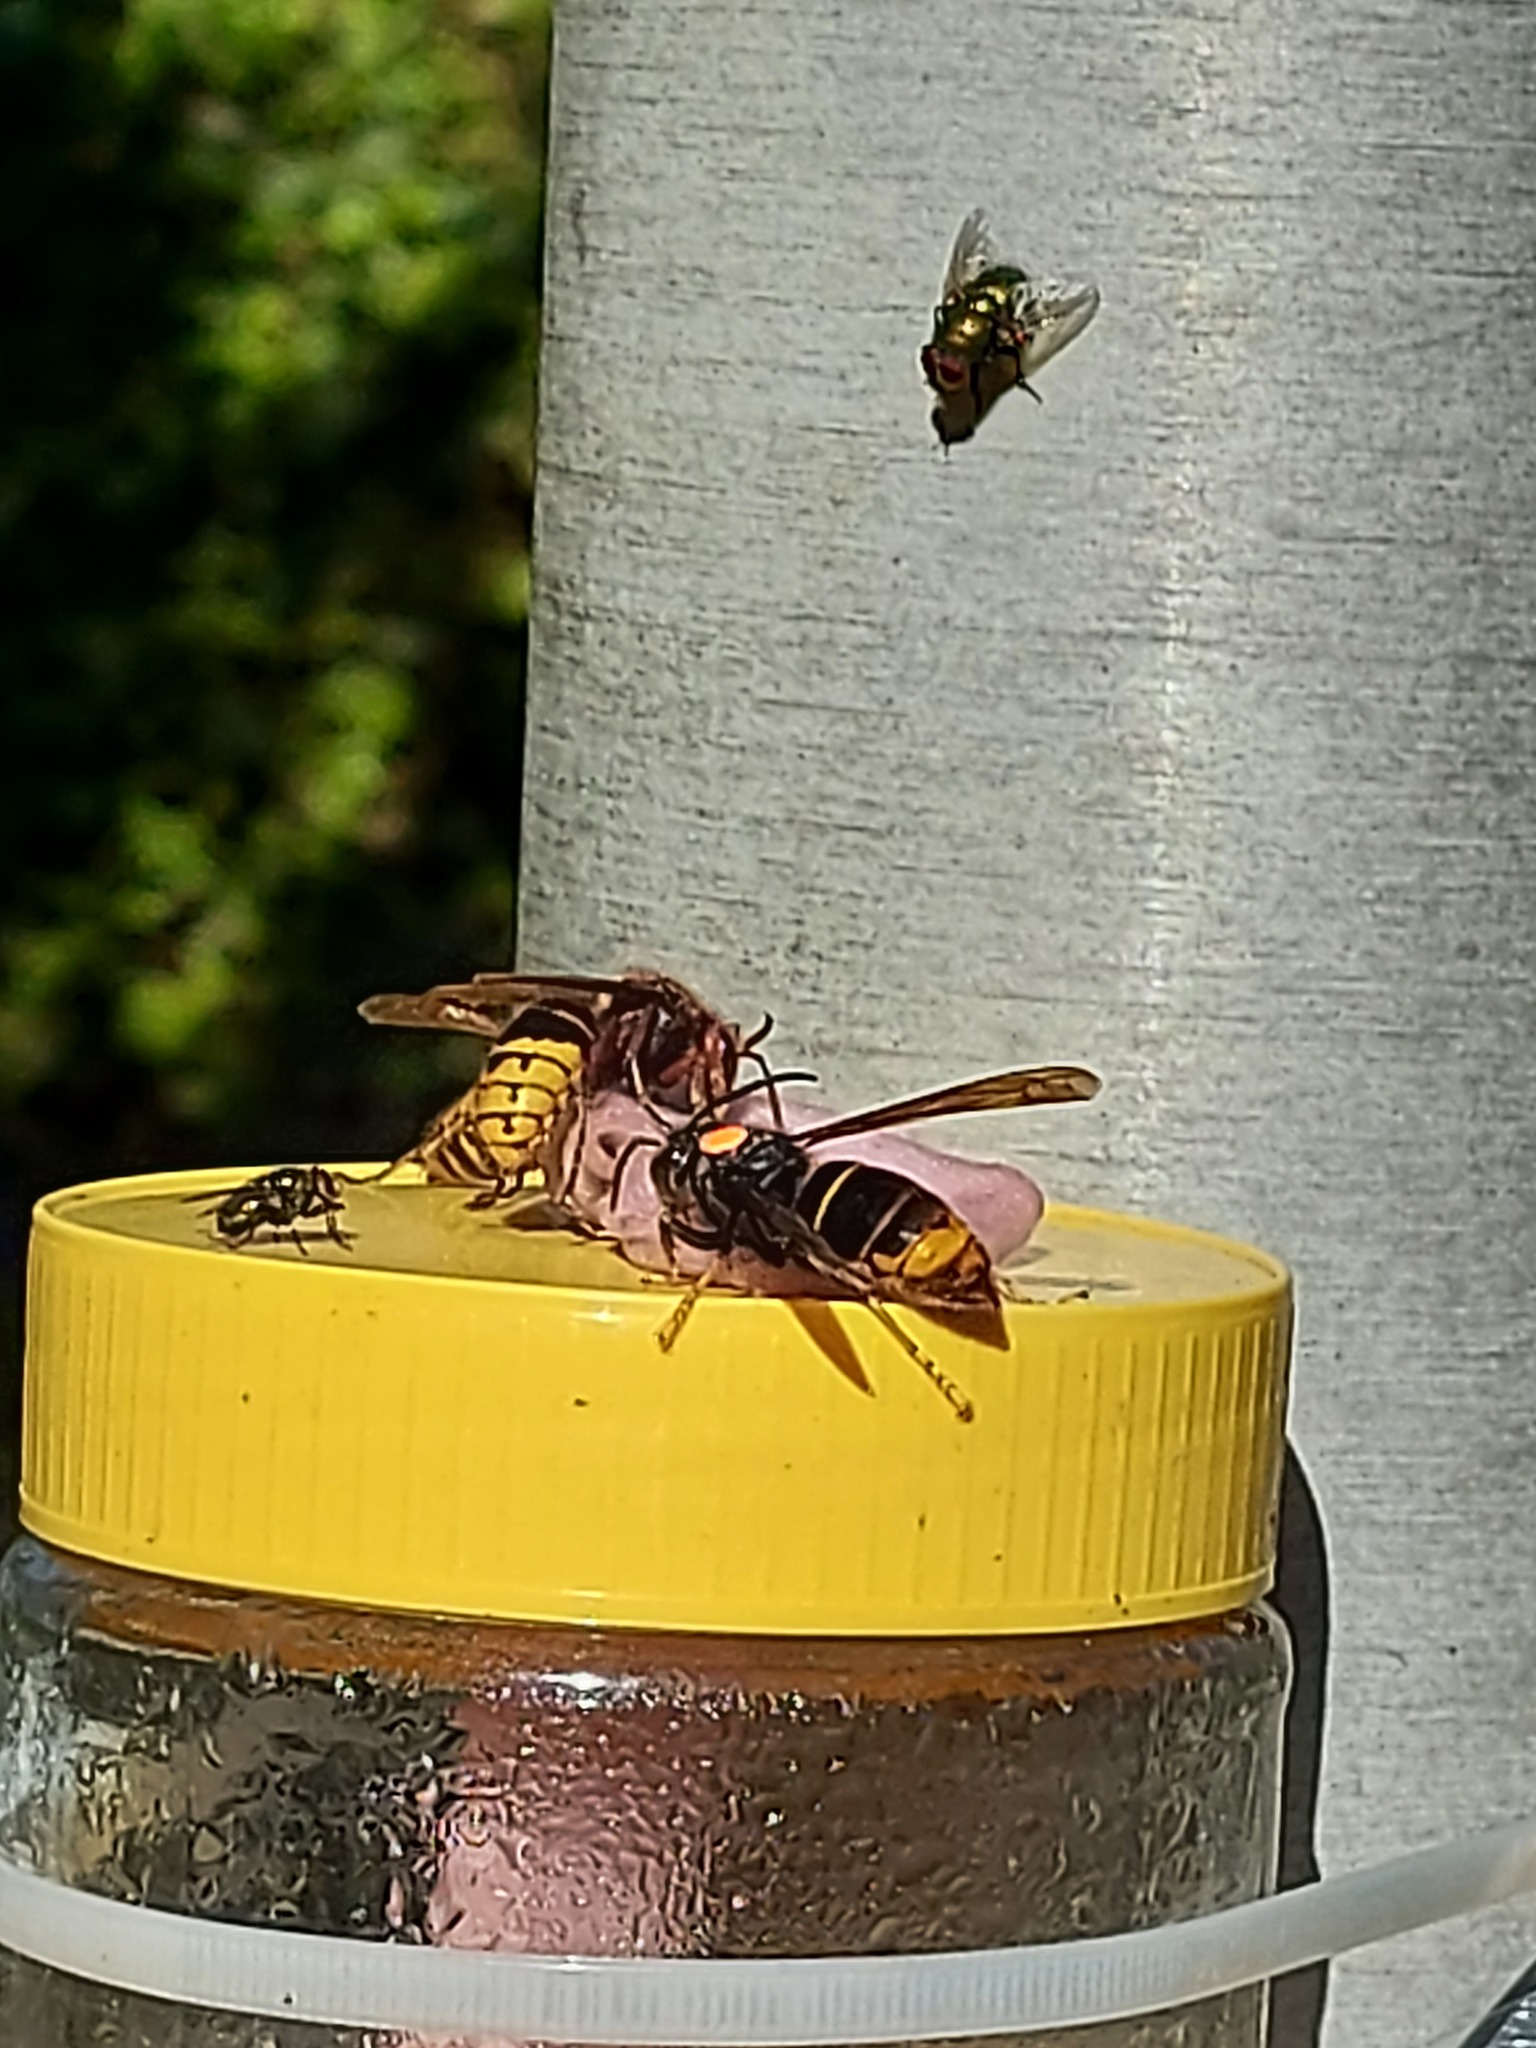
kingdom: Animalia
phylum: Arthropoda
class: Insecta
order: Hymenoptera
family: Vespidae
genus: Vespa
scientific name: Vespa velutina
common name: Asian hornet
